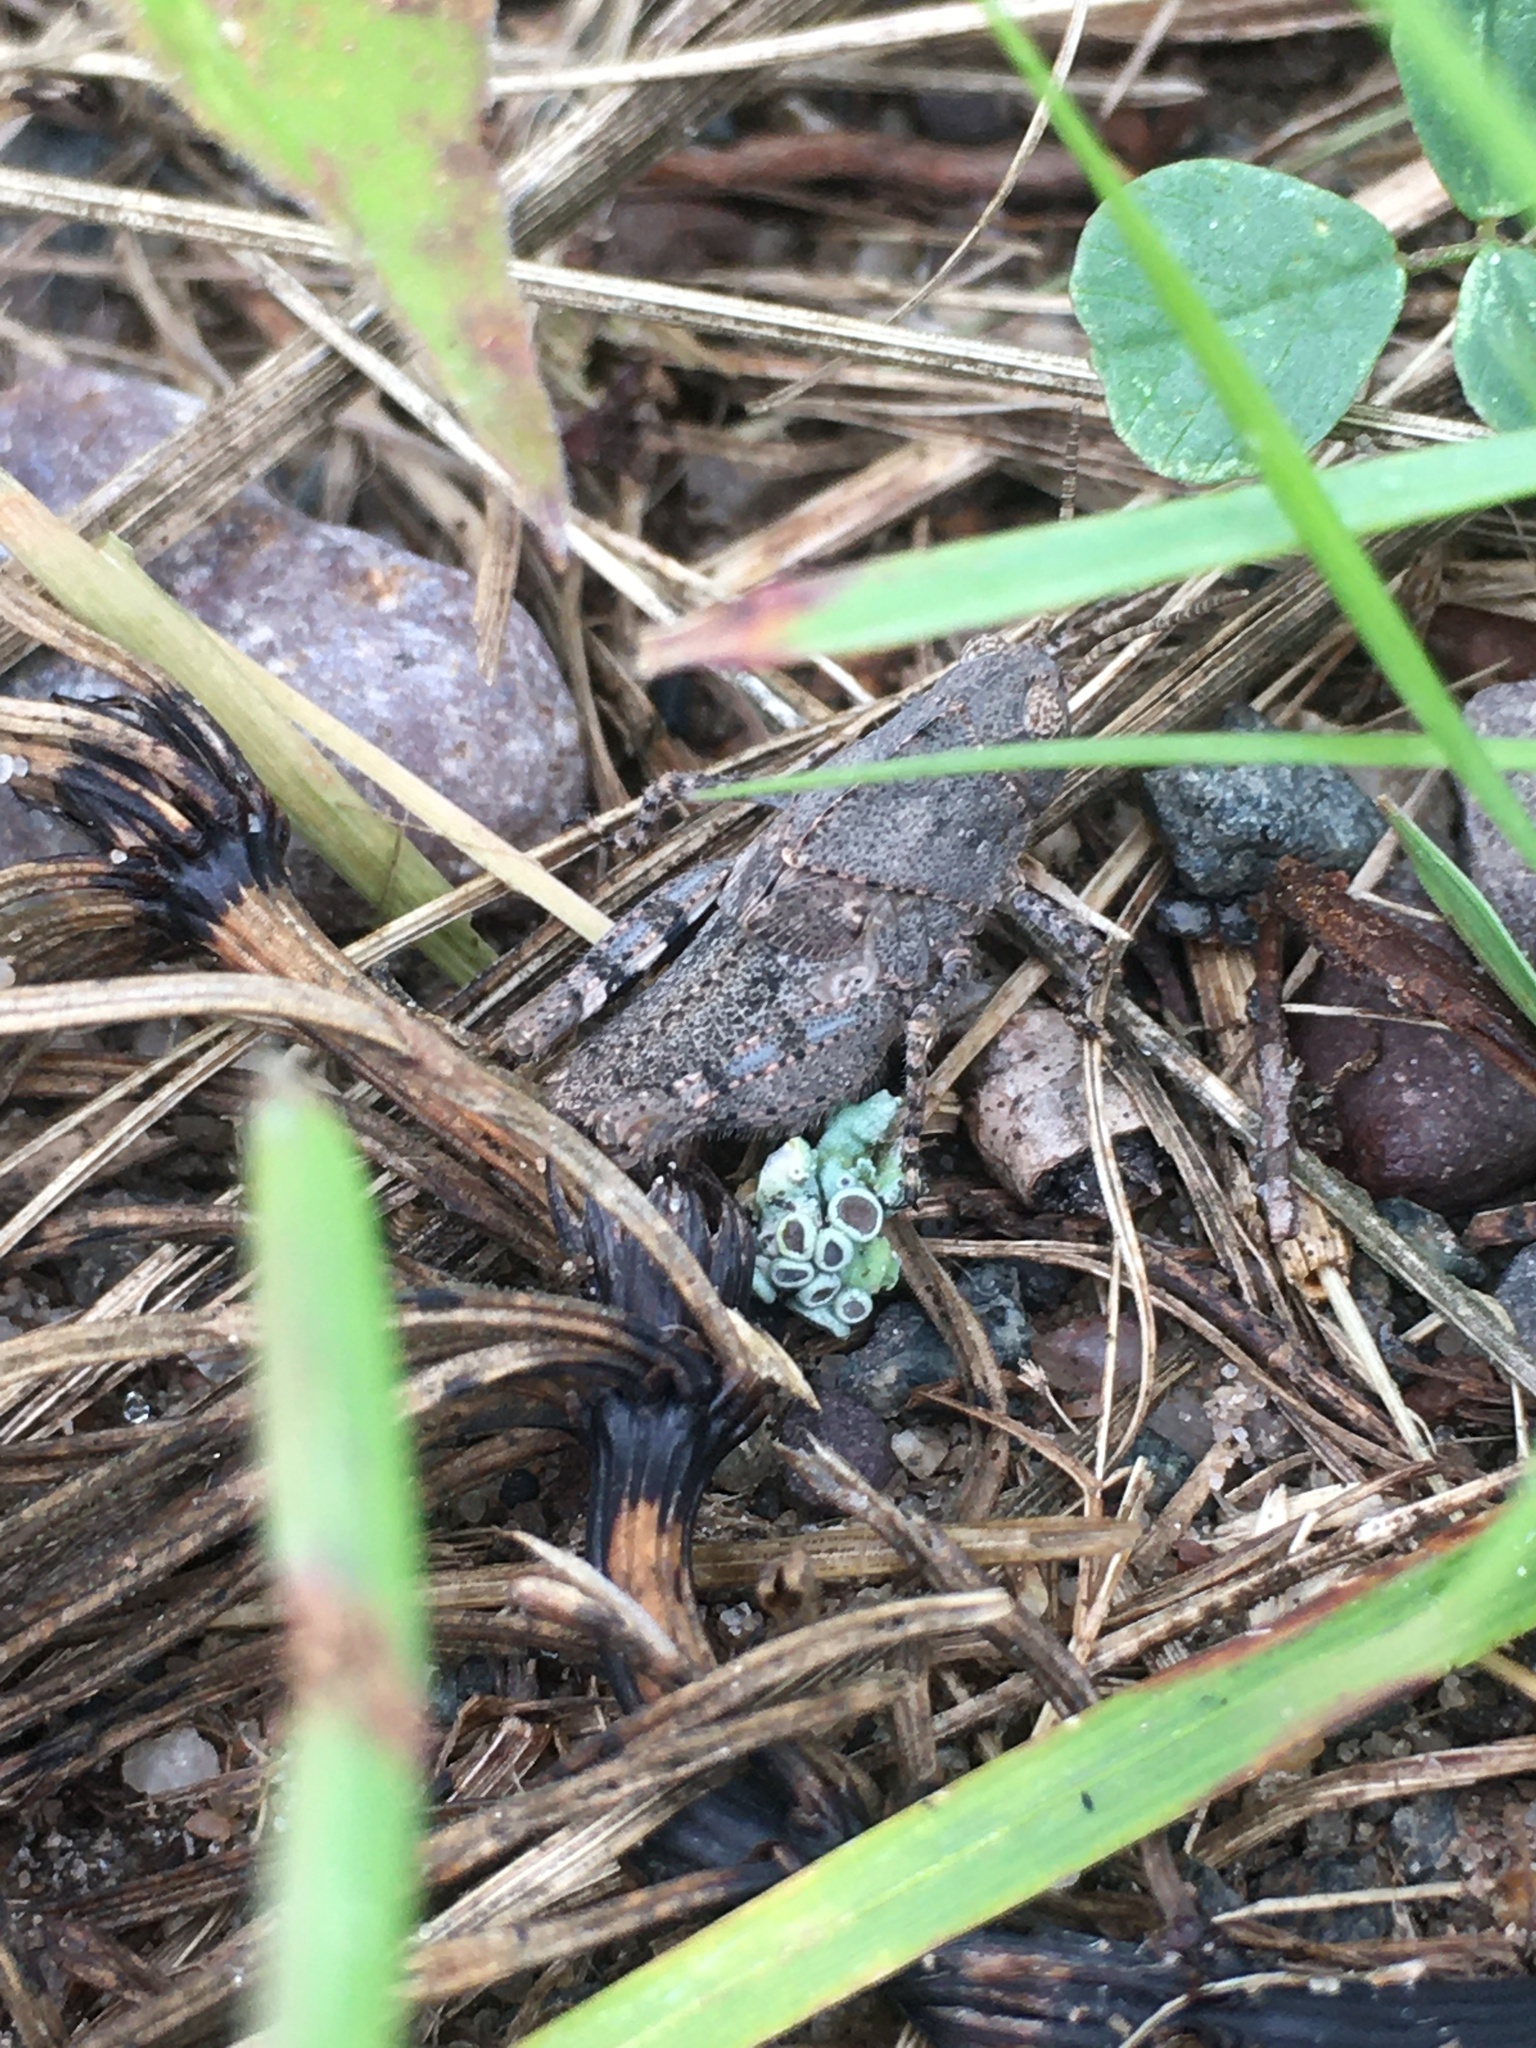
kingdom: Animalia
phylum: Arthropoda
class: Insecta
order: Orthoptera
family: Acrididae
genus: Dissosteira
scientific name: Dissosteira carolina
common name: Carolina grasshopper
